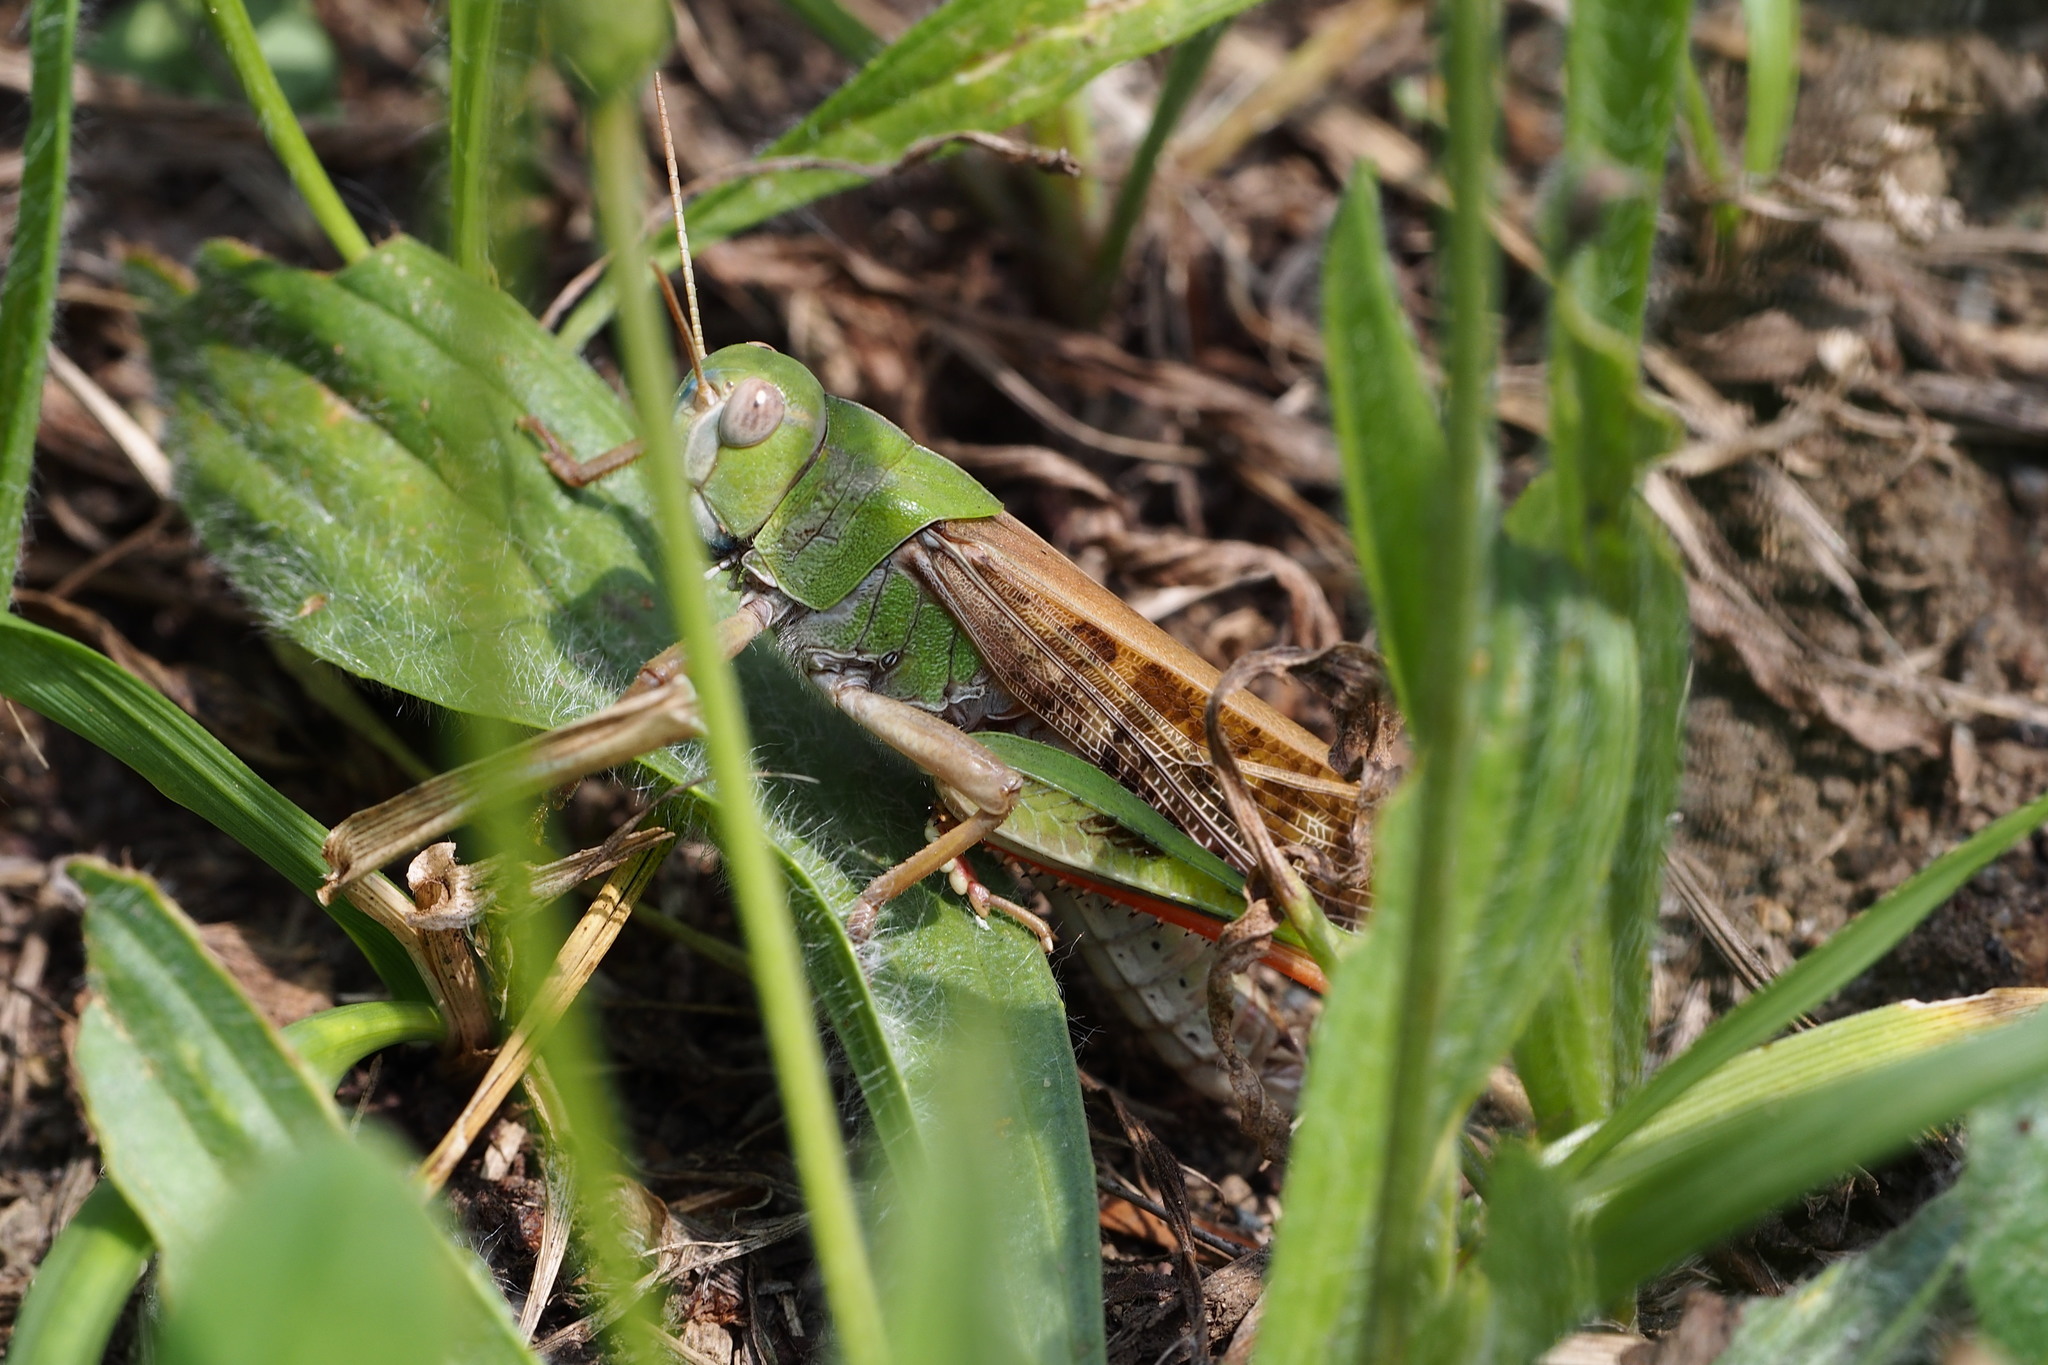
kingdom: Animalia
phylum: Arthropoda
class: Insecta
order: Orthoptera
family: Acrididae
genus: Locusta
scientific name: Locusta migratoria
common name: Migratory locust
